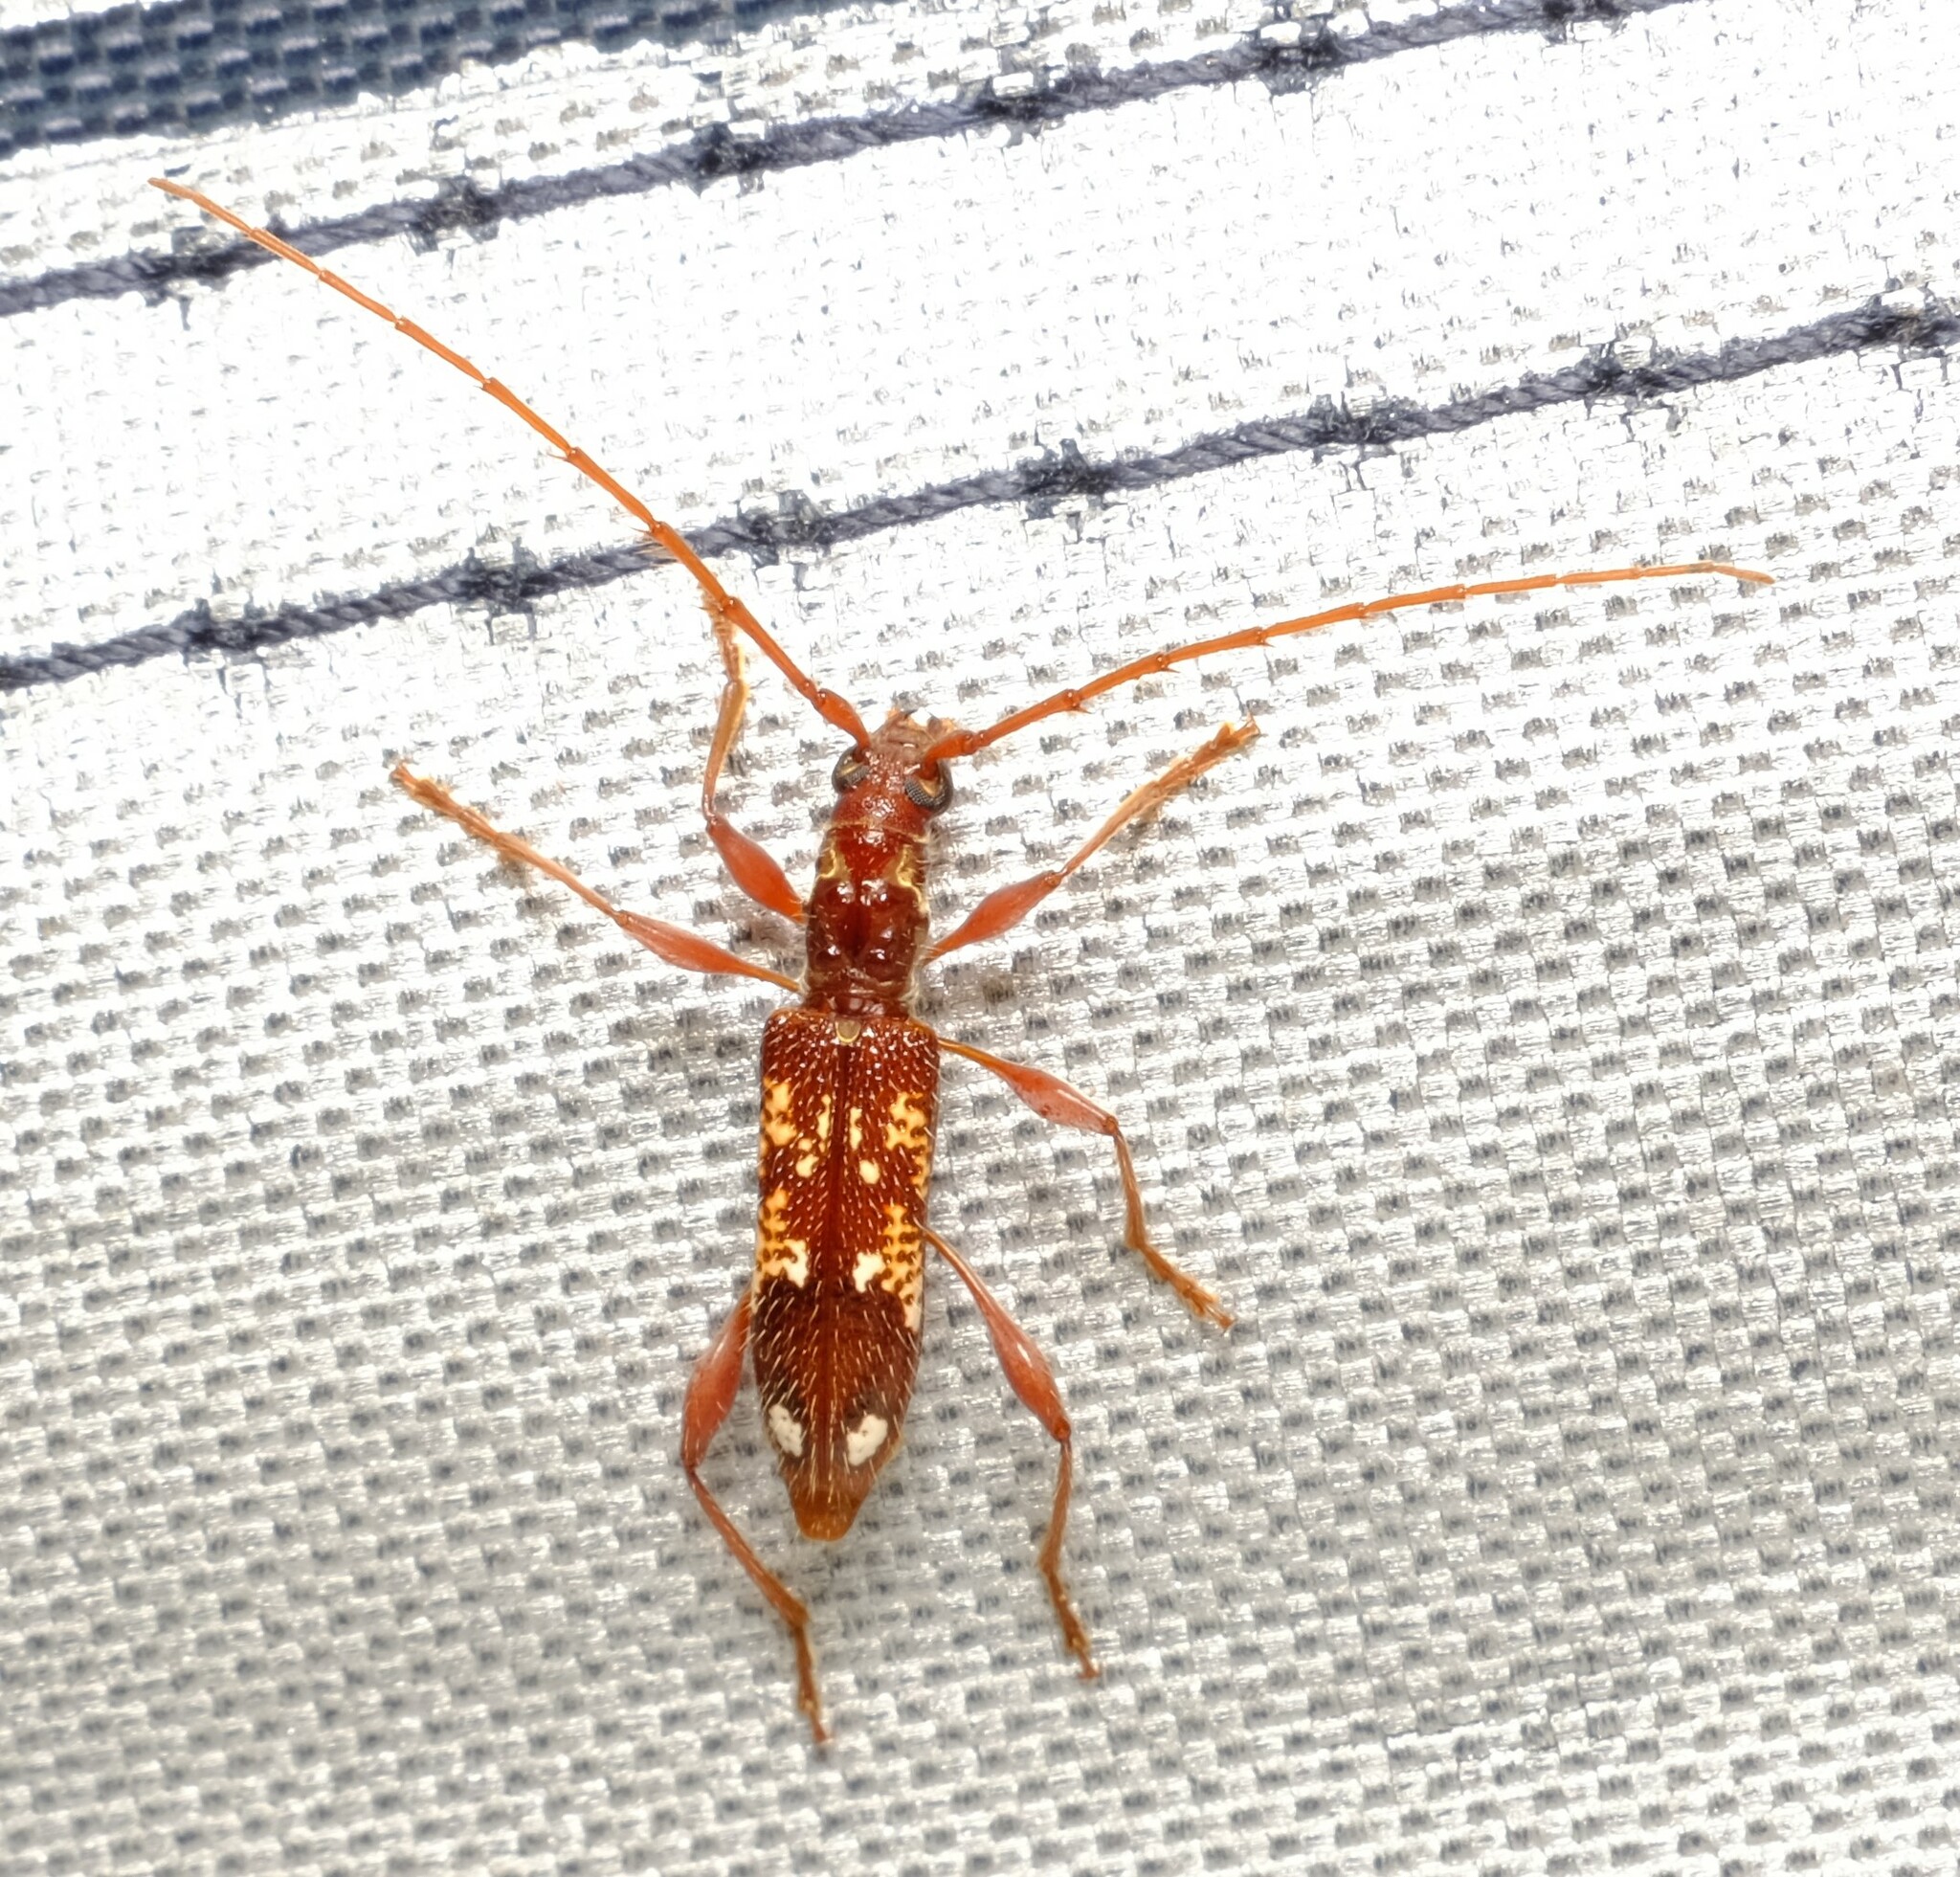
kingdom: Animalia
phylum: Arthropoda
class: Insecta
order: Coleoptera
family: Cerambycidae
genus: Coptocercus
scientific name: Coptocercus biguttatus
